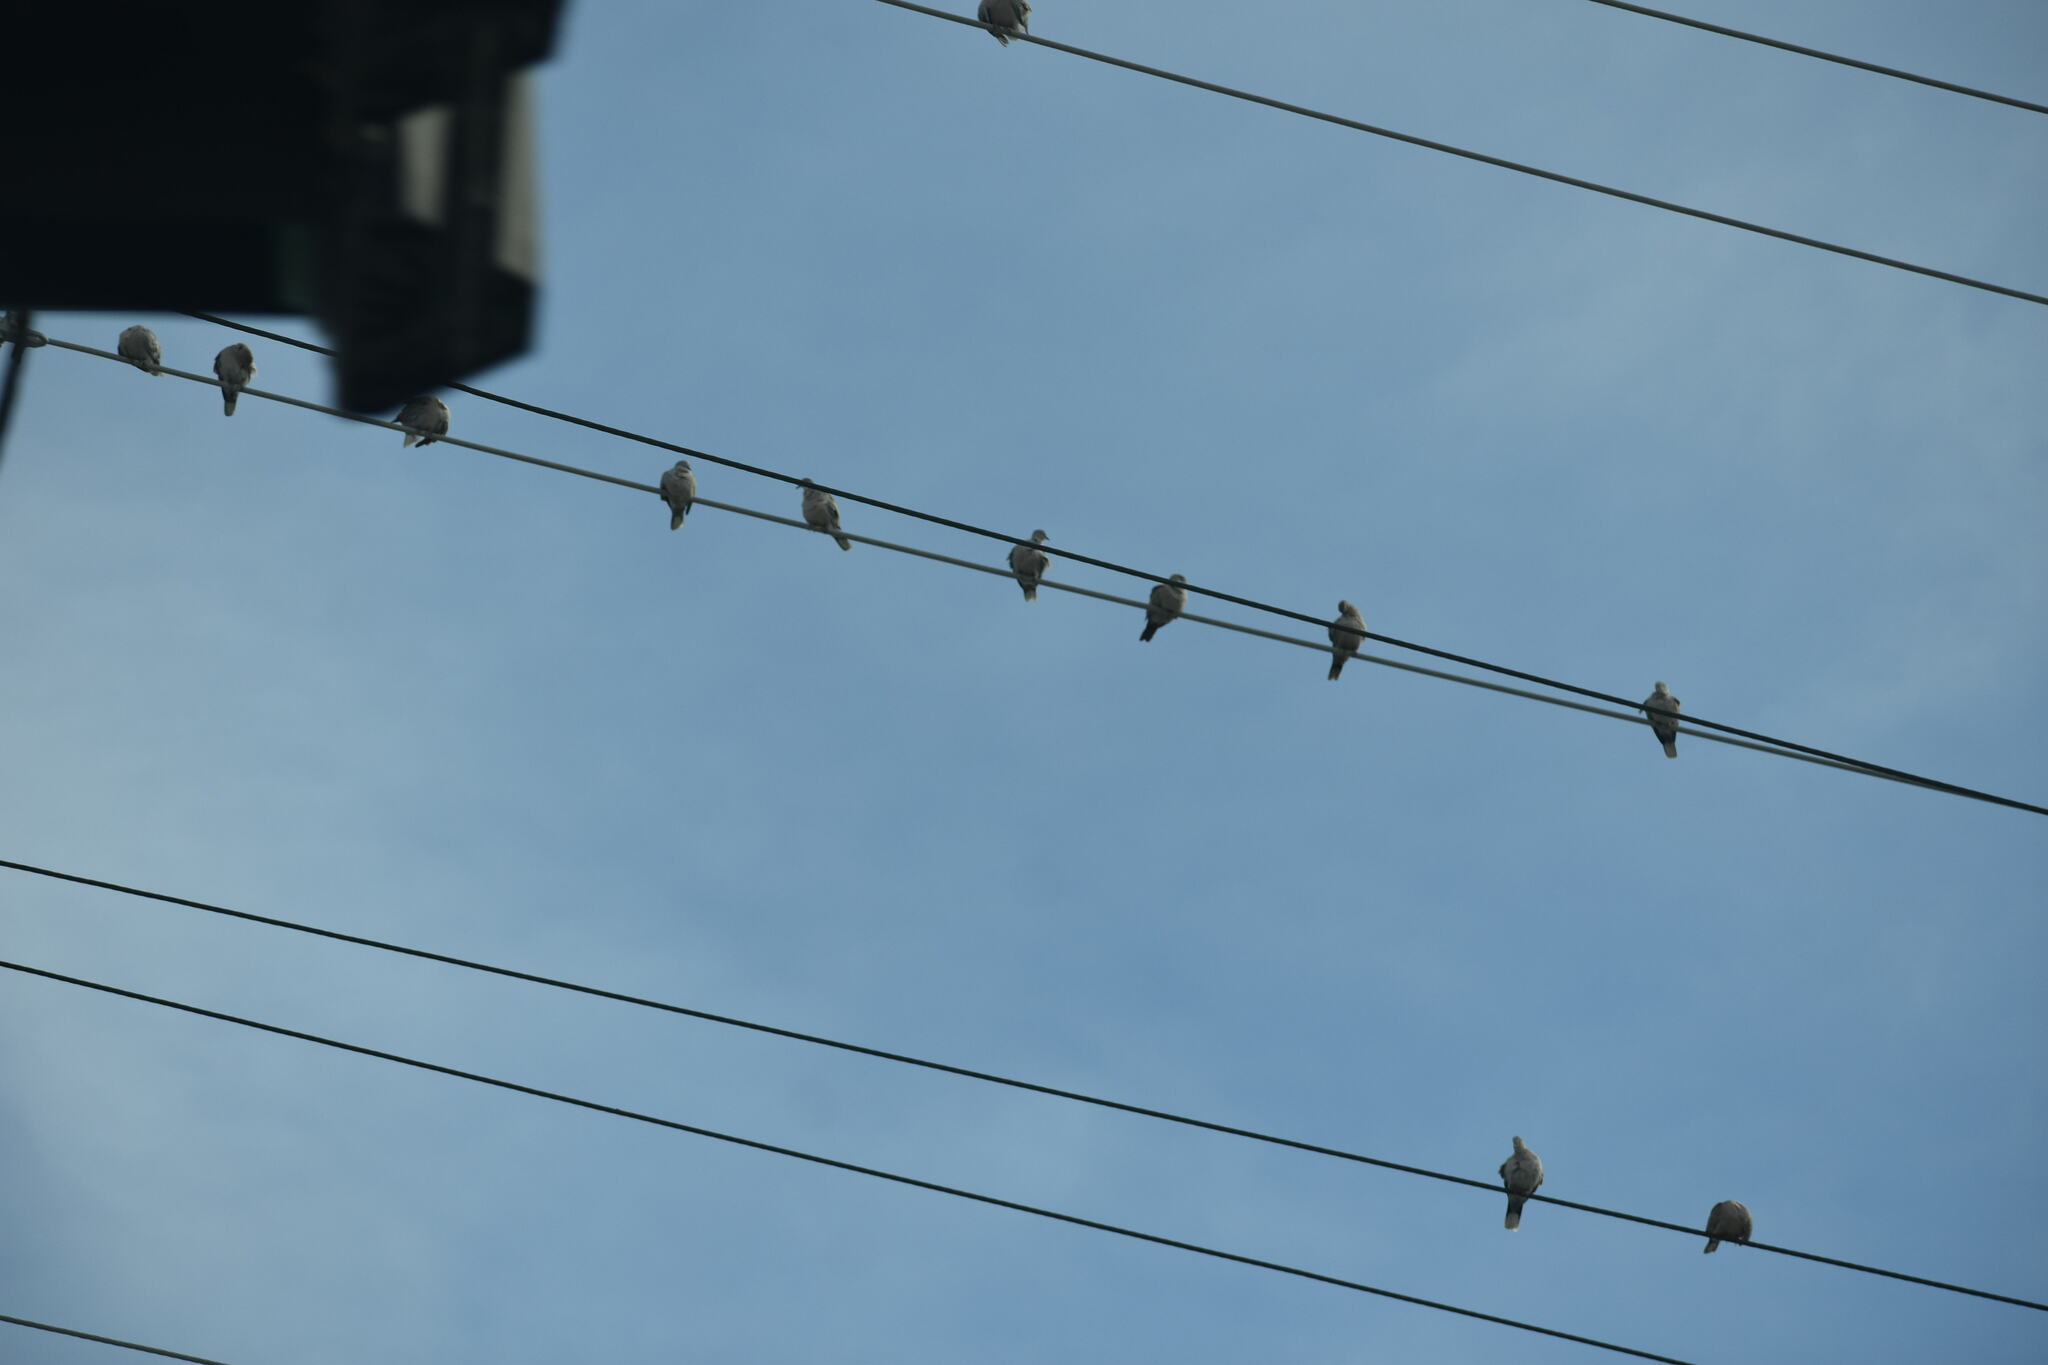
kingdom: Animalia
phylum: Chordata
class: Aves
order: Columbiformes
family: Columbidae
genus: Streptopelia
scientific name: Streptopelia decaocto
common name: Eurasian collared dove
